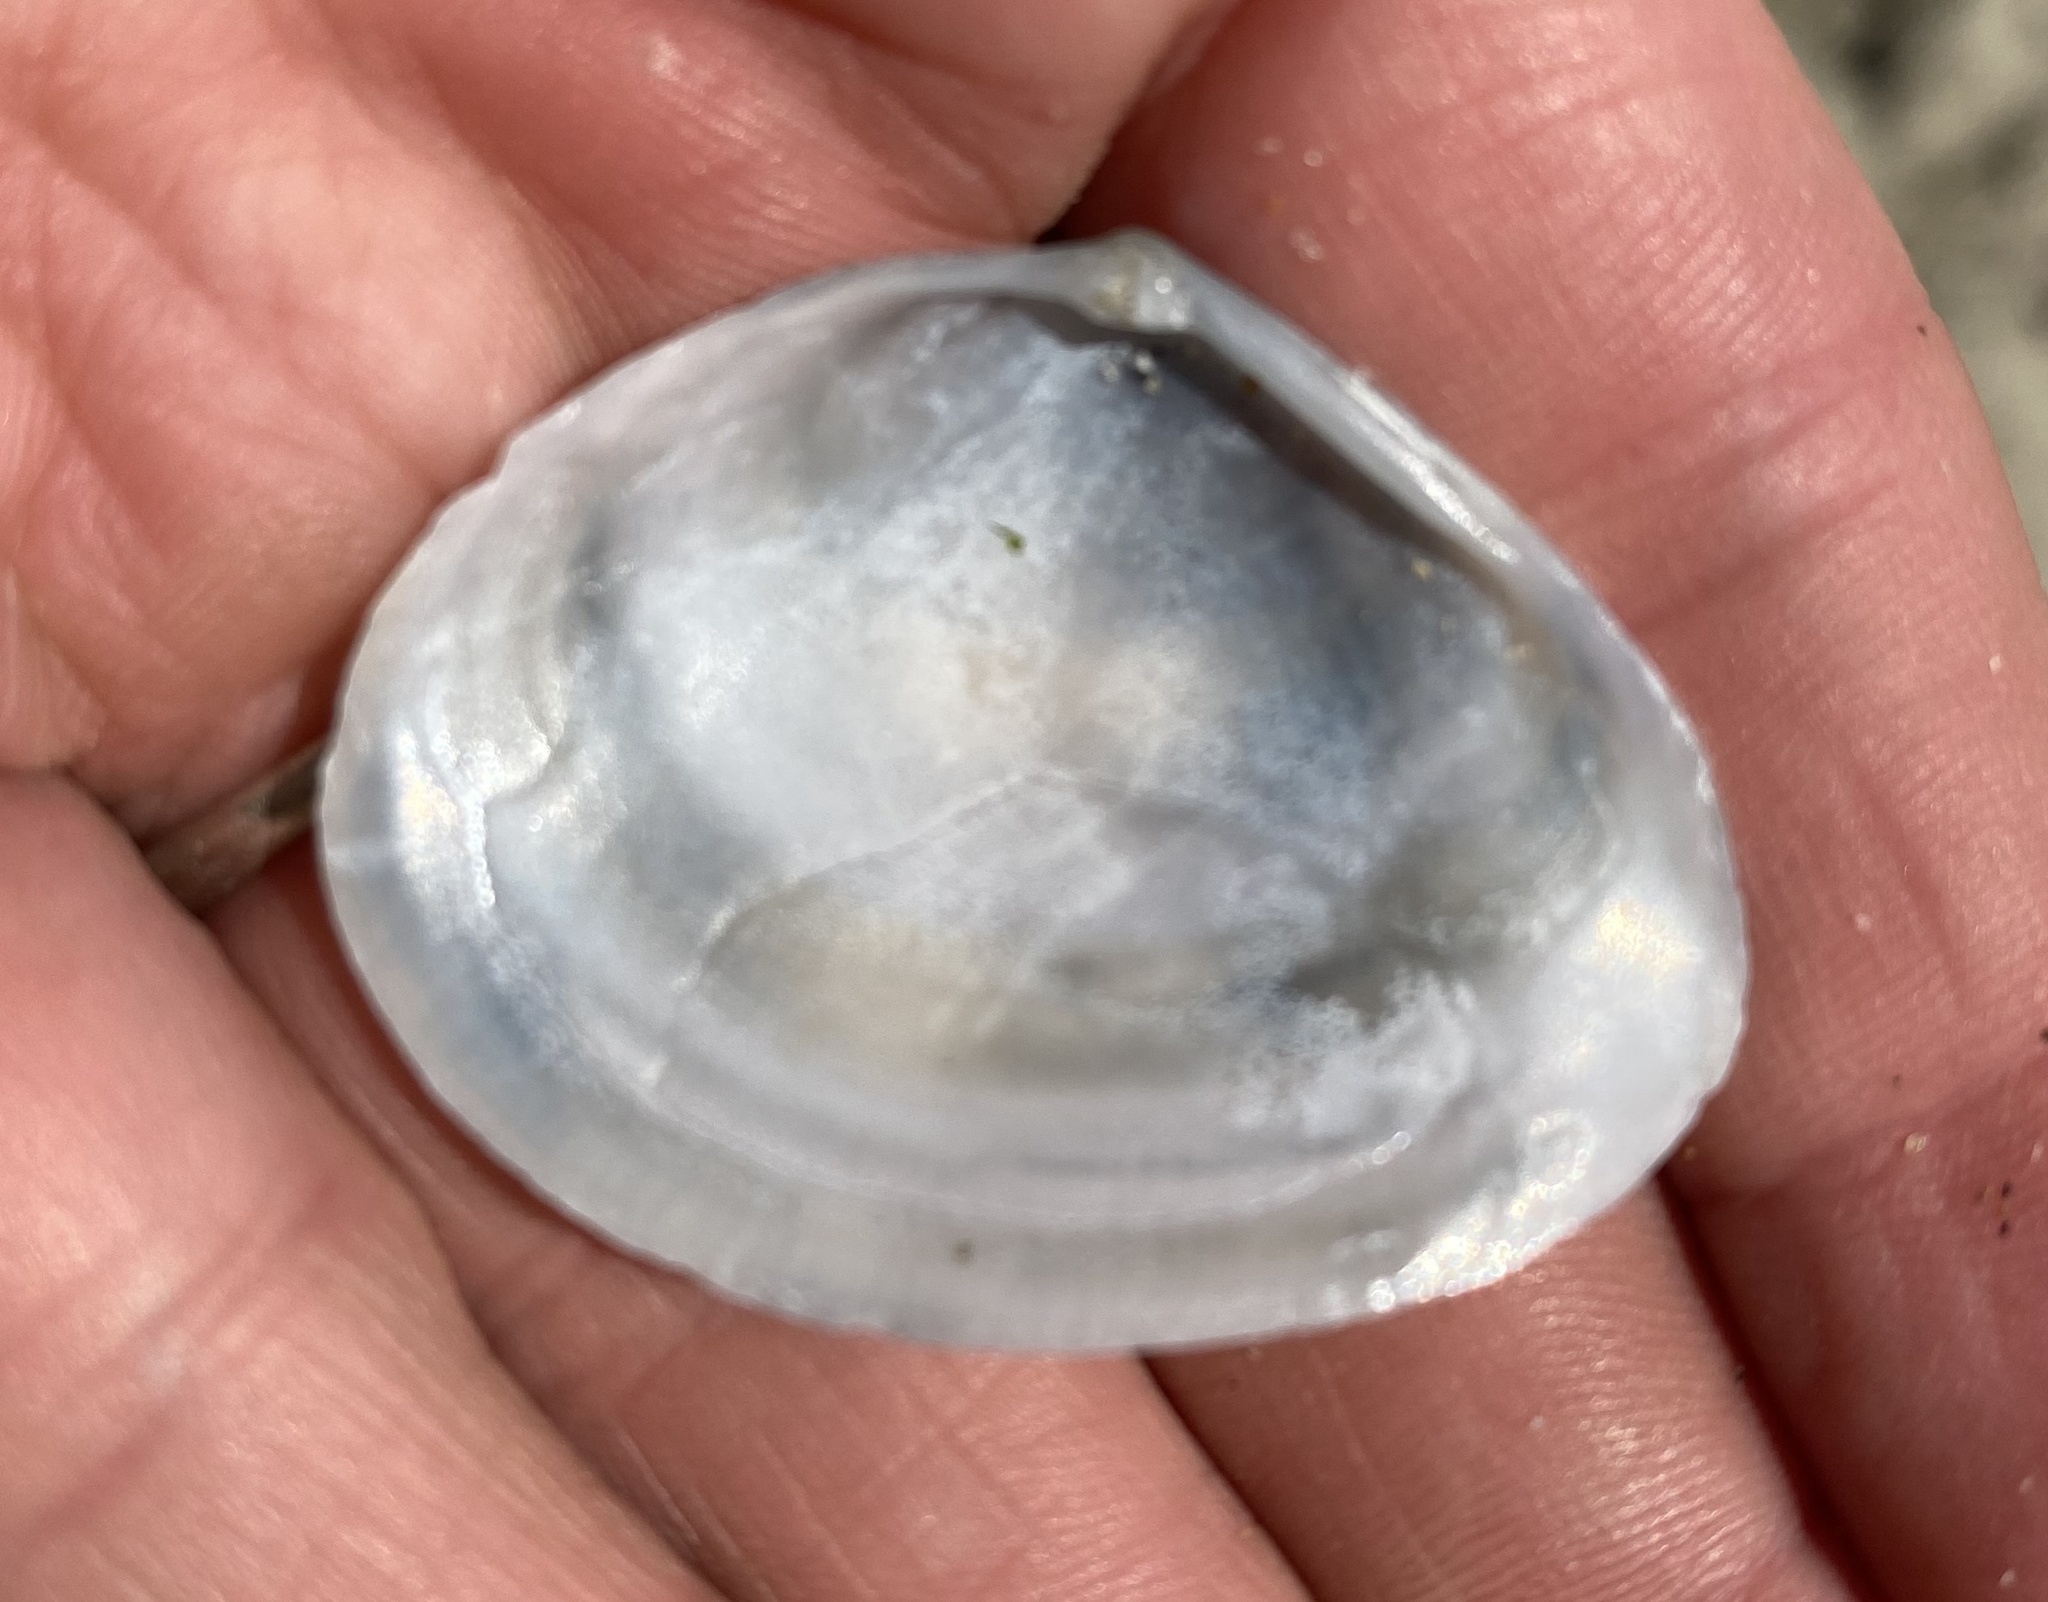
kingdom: Animalia
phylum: Mollusca
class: Bivalvia
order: Cardiida
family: Tellinidae
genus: Macoma
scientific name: Macoma nasuta
